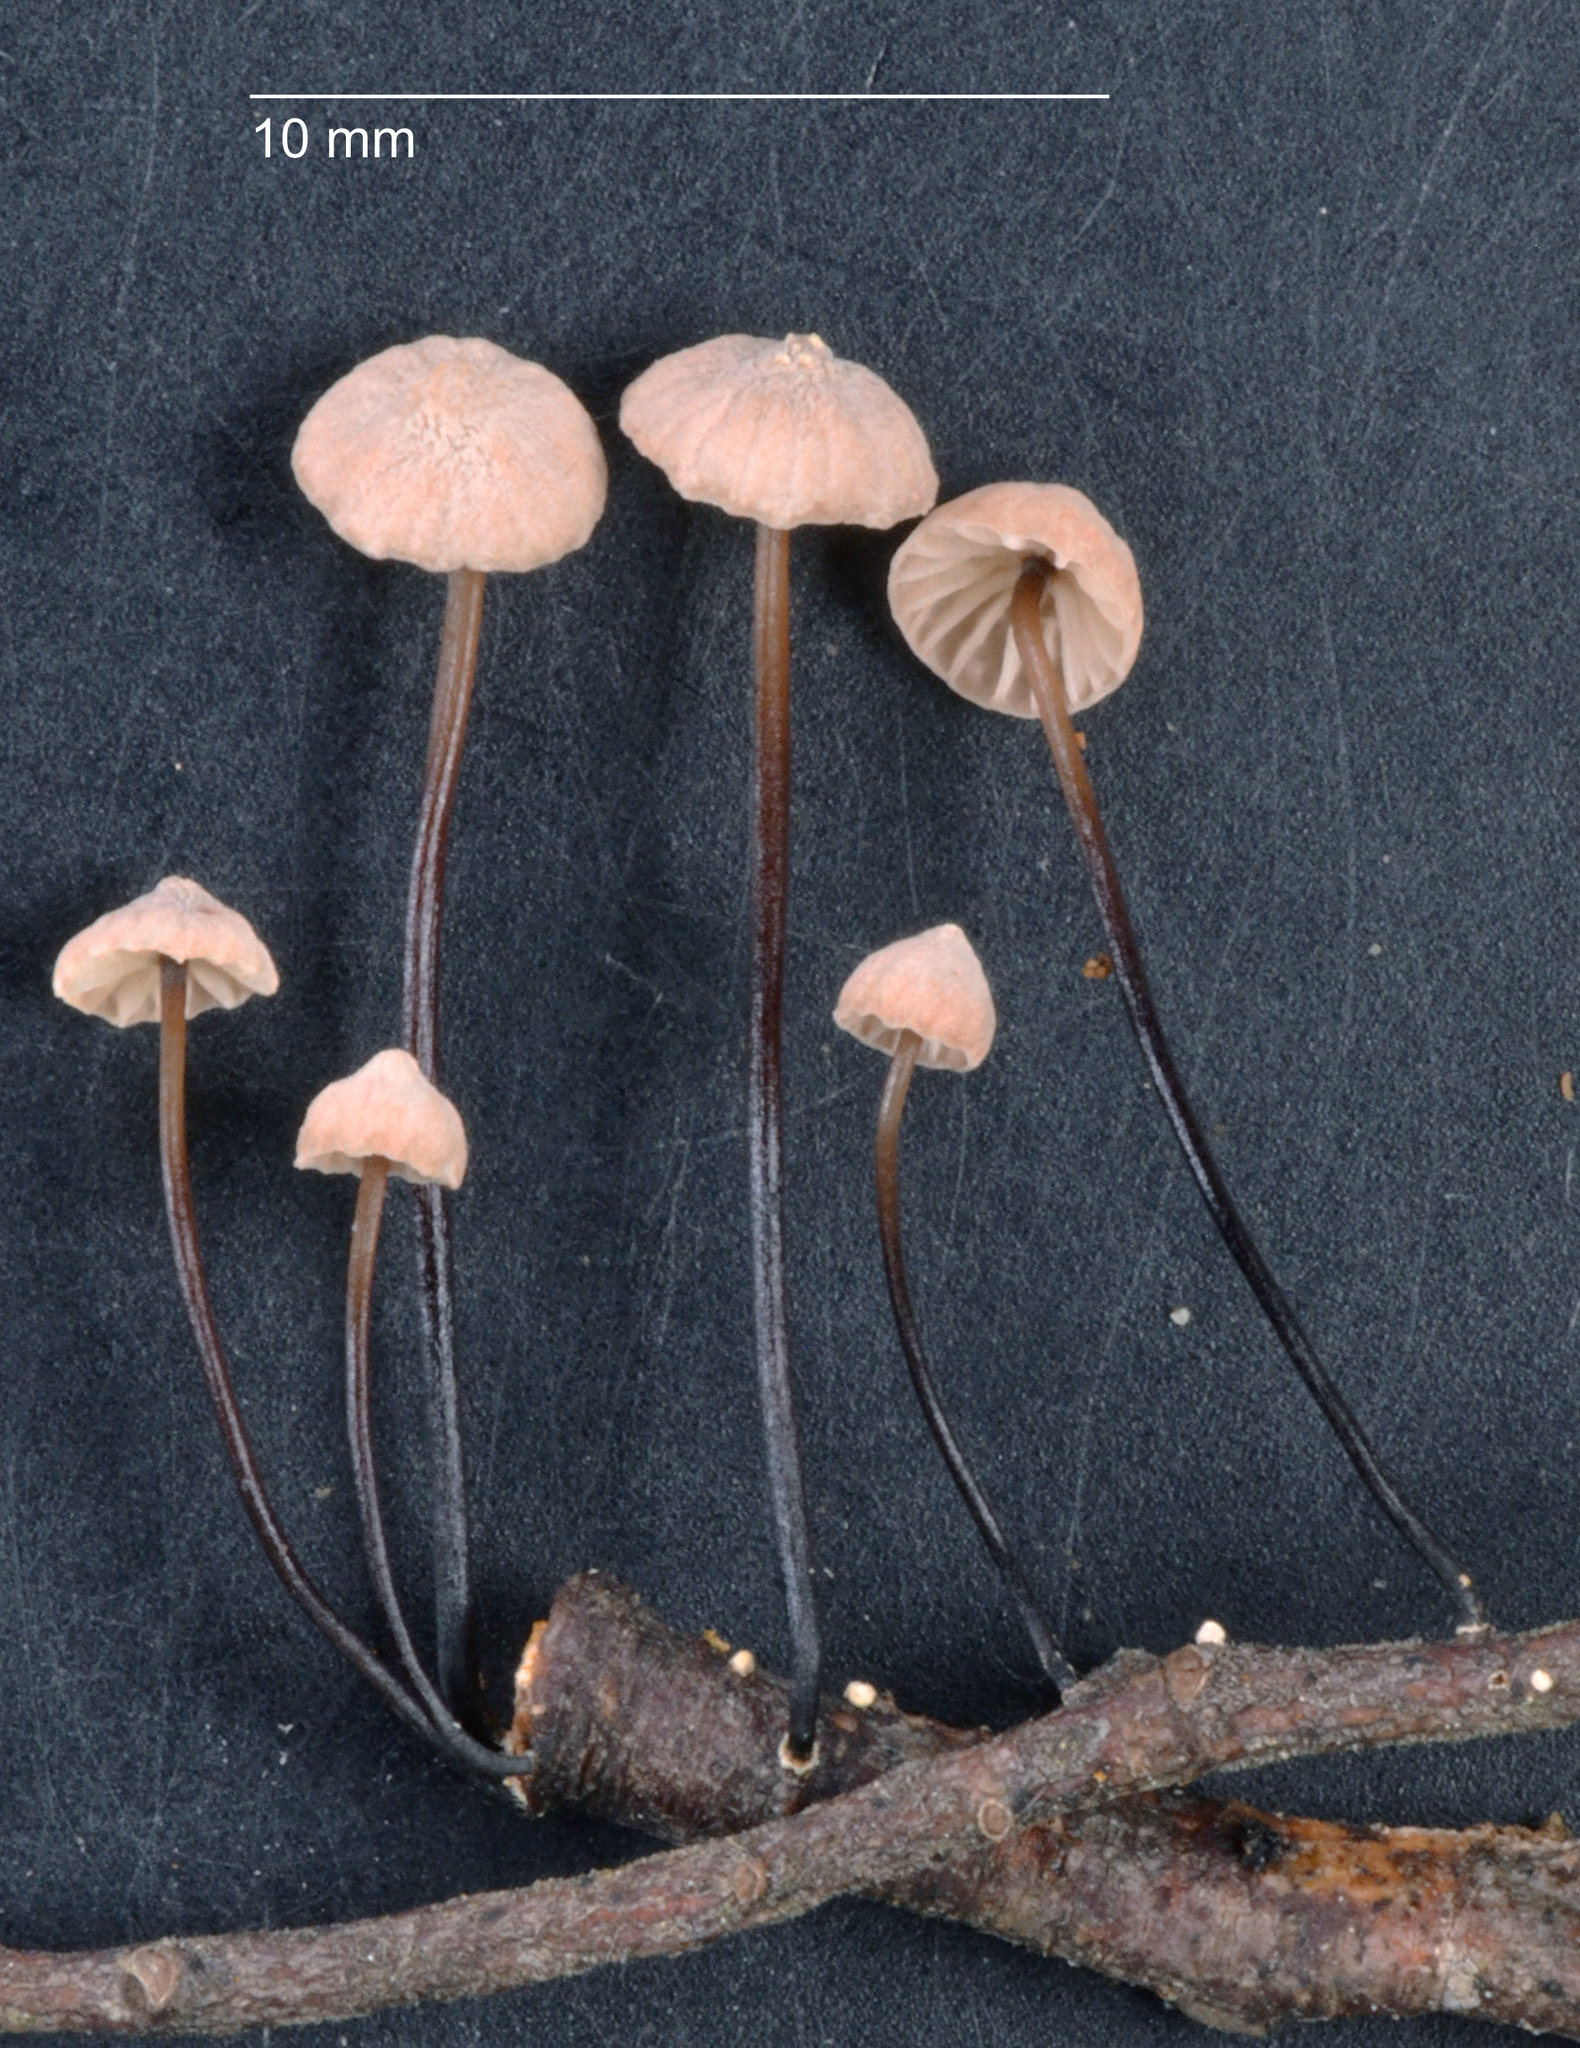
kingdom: Fungi
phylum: Basidiomycota
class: Agaricomycetes
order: Agaricales
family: Omphalotaceae
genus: Gymnopus
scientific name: Gymnopus
